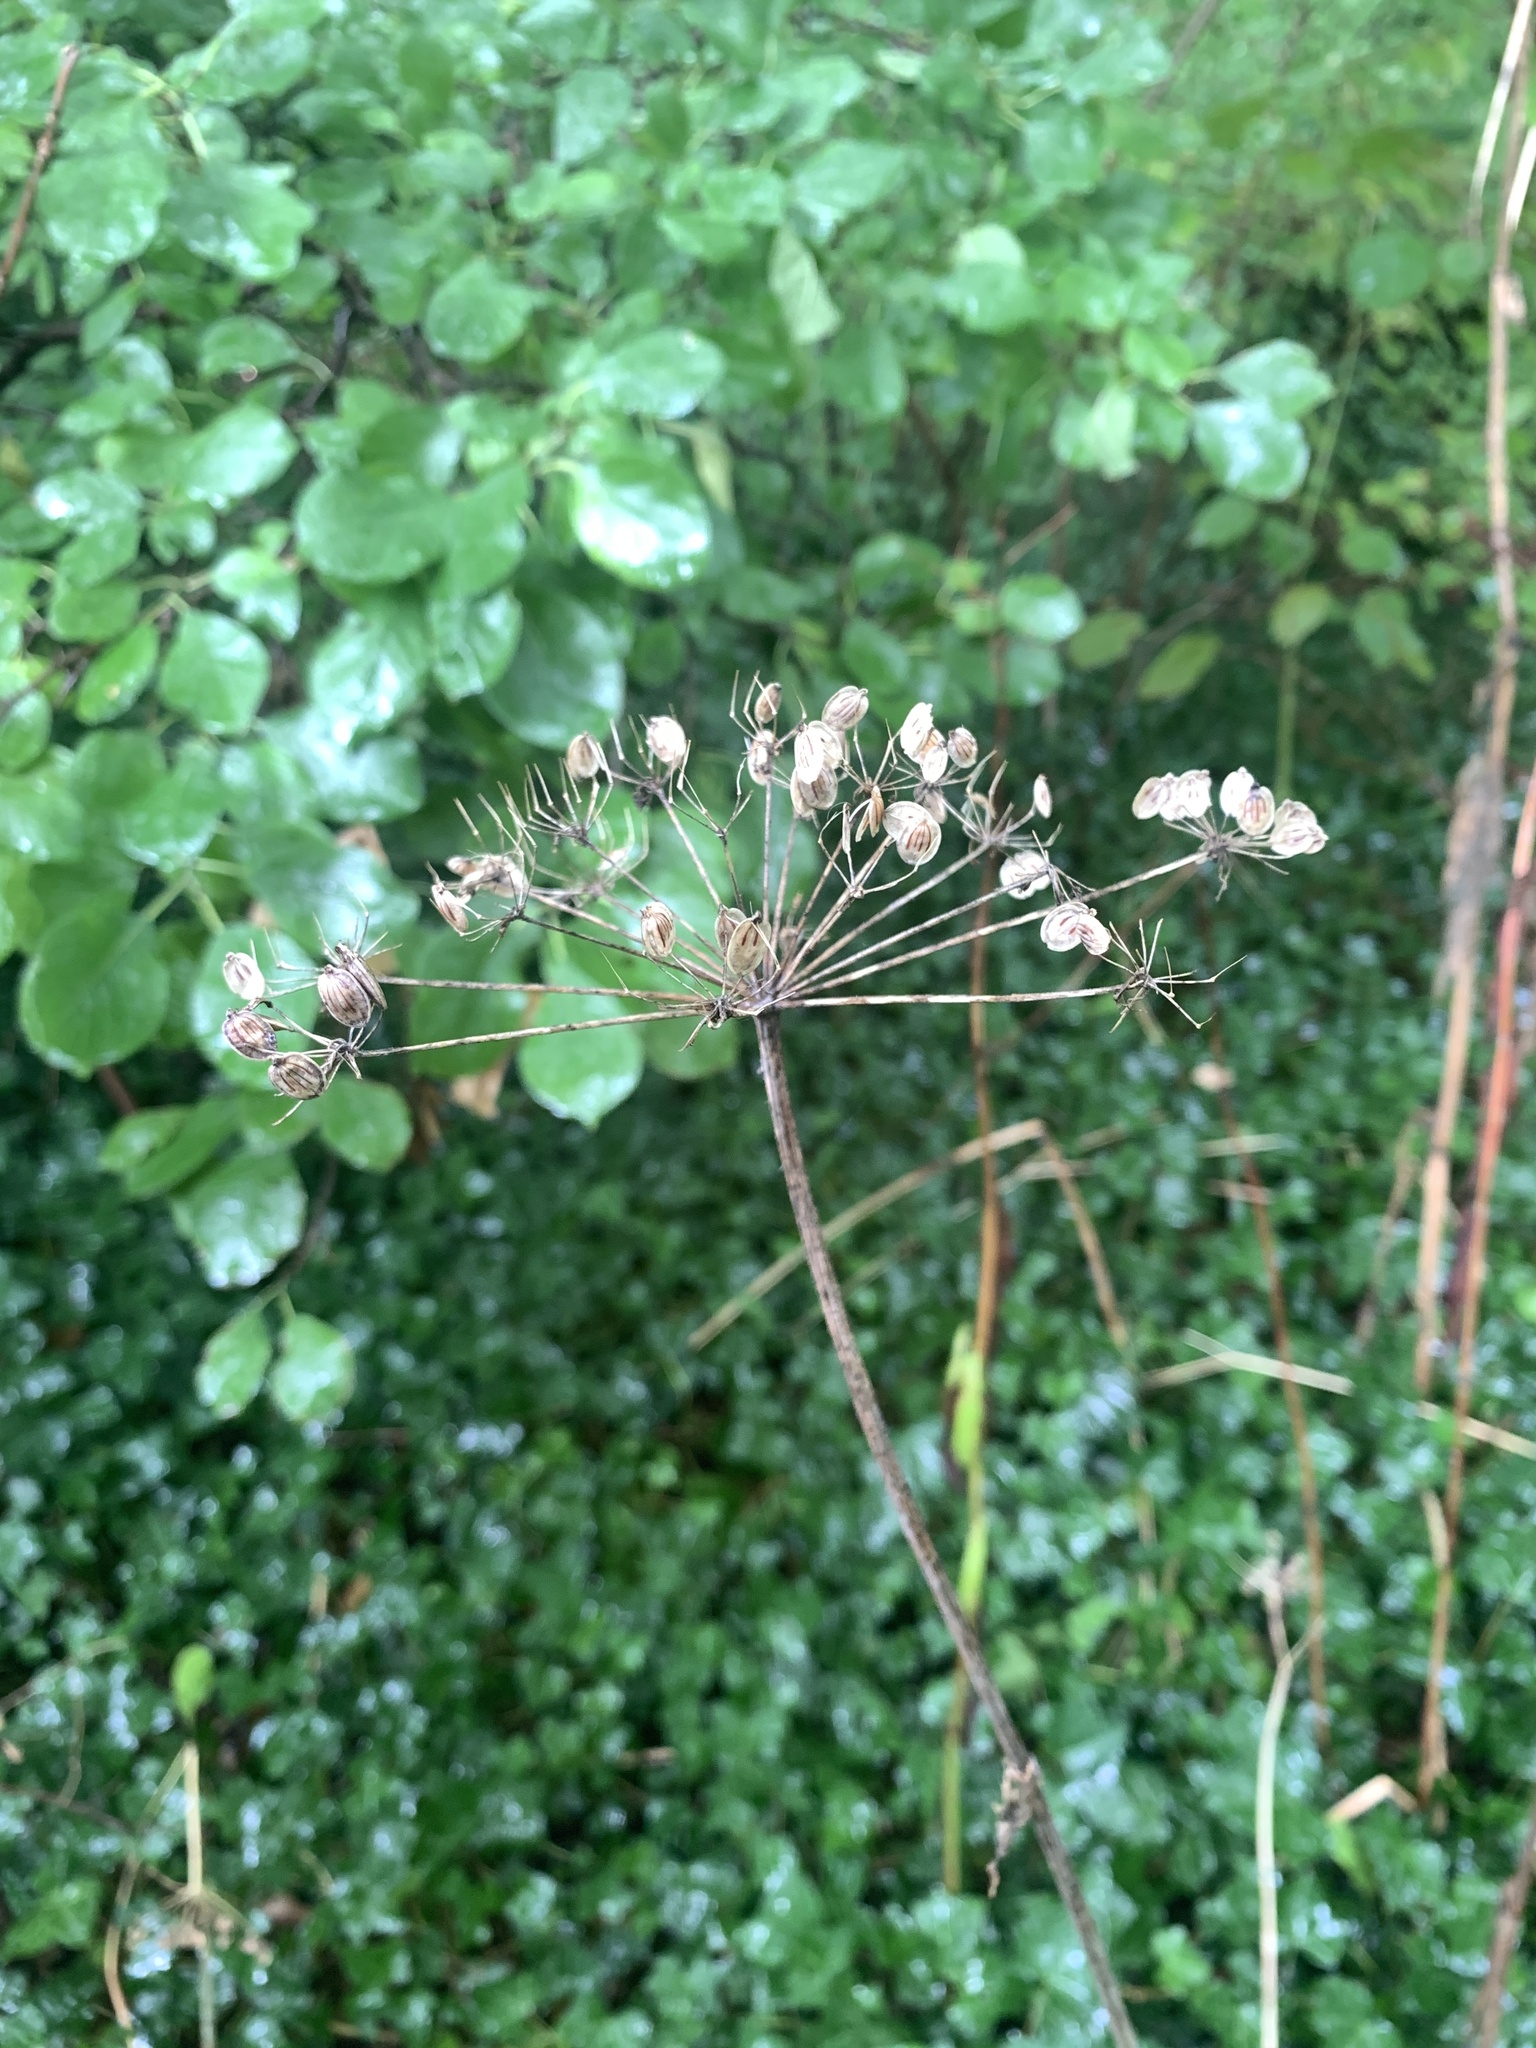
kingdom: Plantae
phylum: Tracheophyta
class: Magnoliopsida
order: Apiales
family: Apiaceae
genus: Heracleum
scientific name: Heracleum sphondylium
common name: Hogweed
